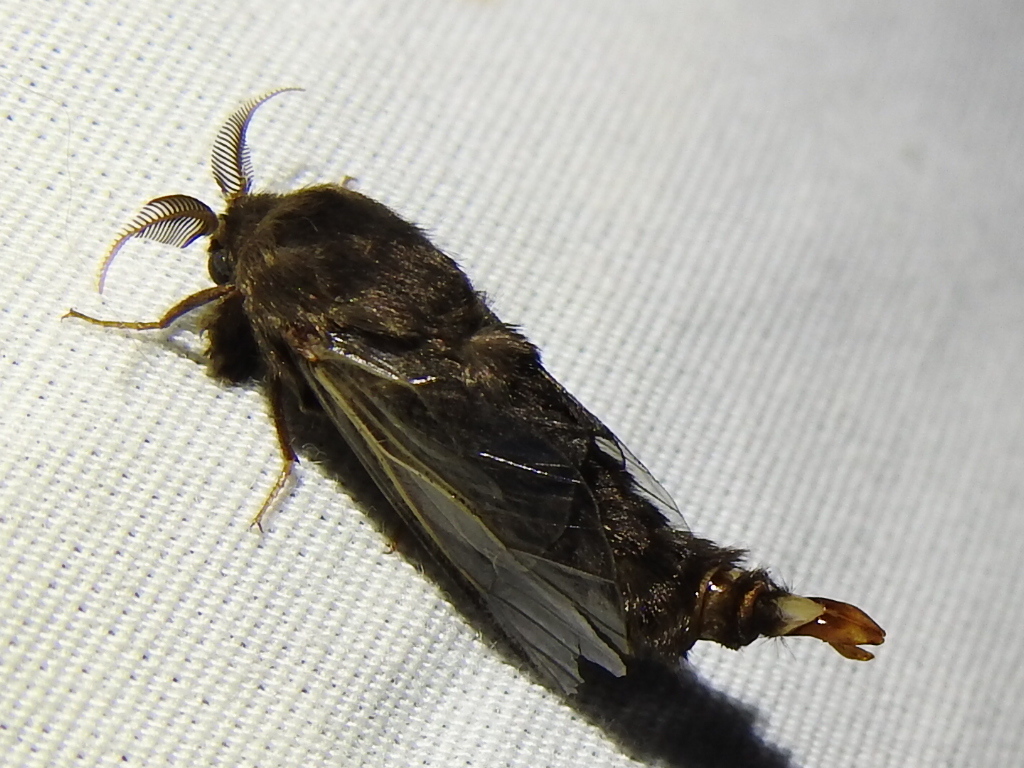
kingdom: Animalia
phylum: Arthropoda
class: Insecta
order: Lepidoptera
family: Psychidae
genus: Thyridopteryx
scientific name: Thyridopteryx ephemeraeformis
